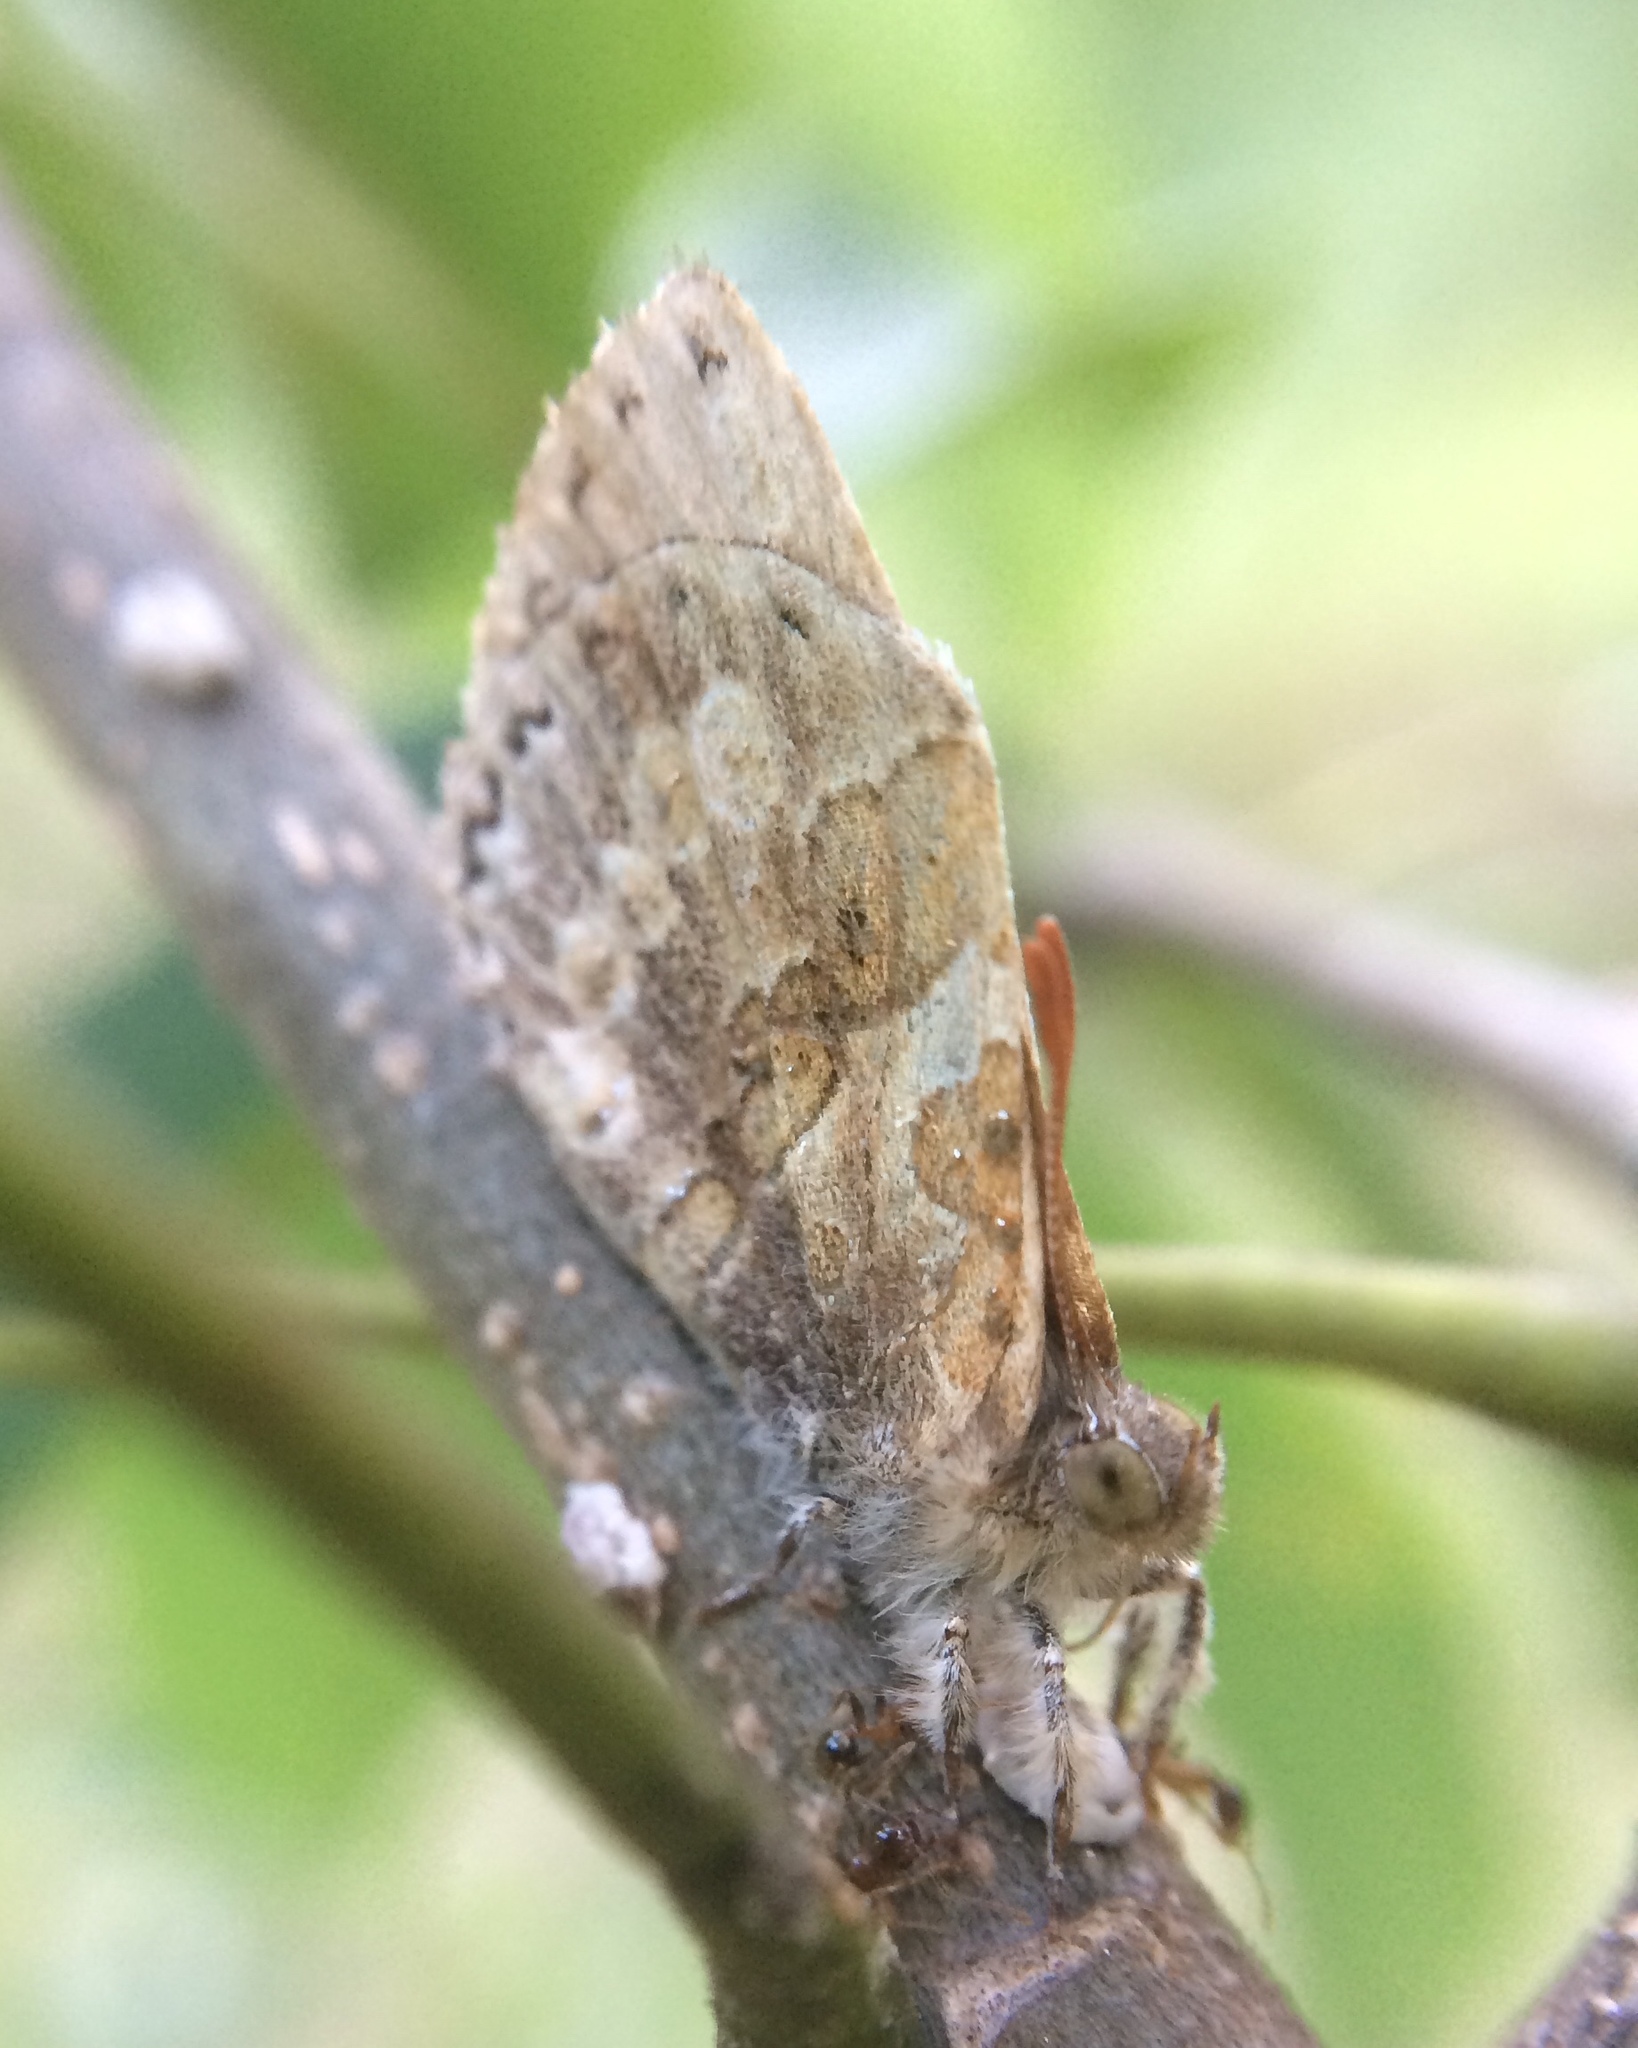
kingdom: Animalia
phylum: Arthropoda
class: Insecta
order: Lepidoptera
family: Lycaenidae
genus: Lachnocnema
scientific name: Lachnocnema bibulus
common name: Common woolly legs
